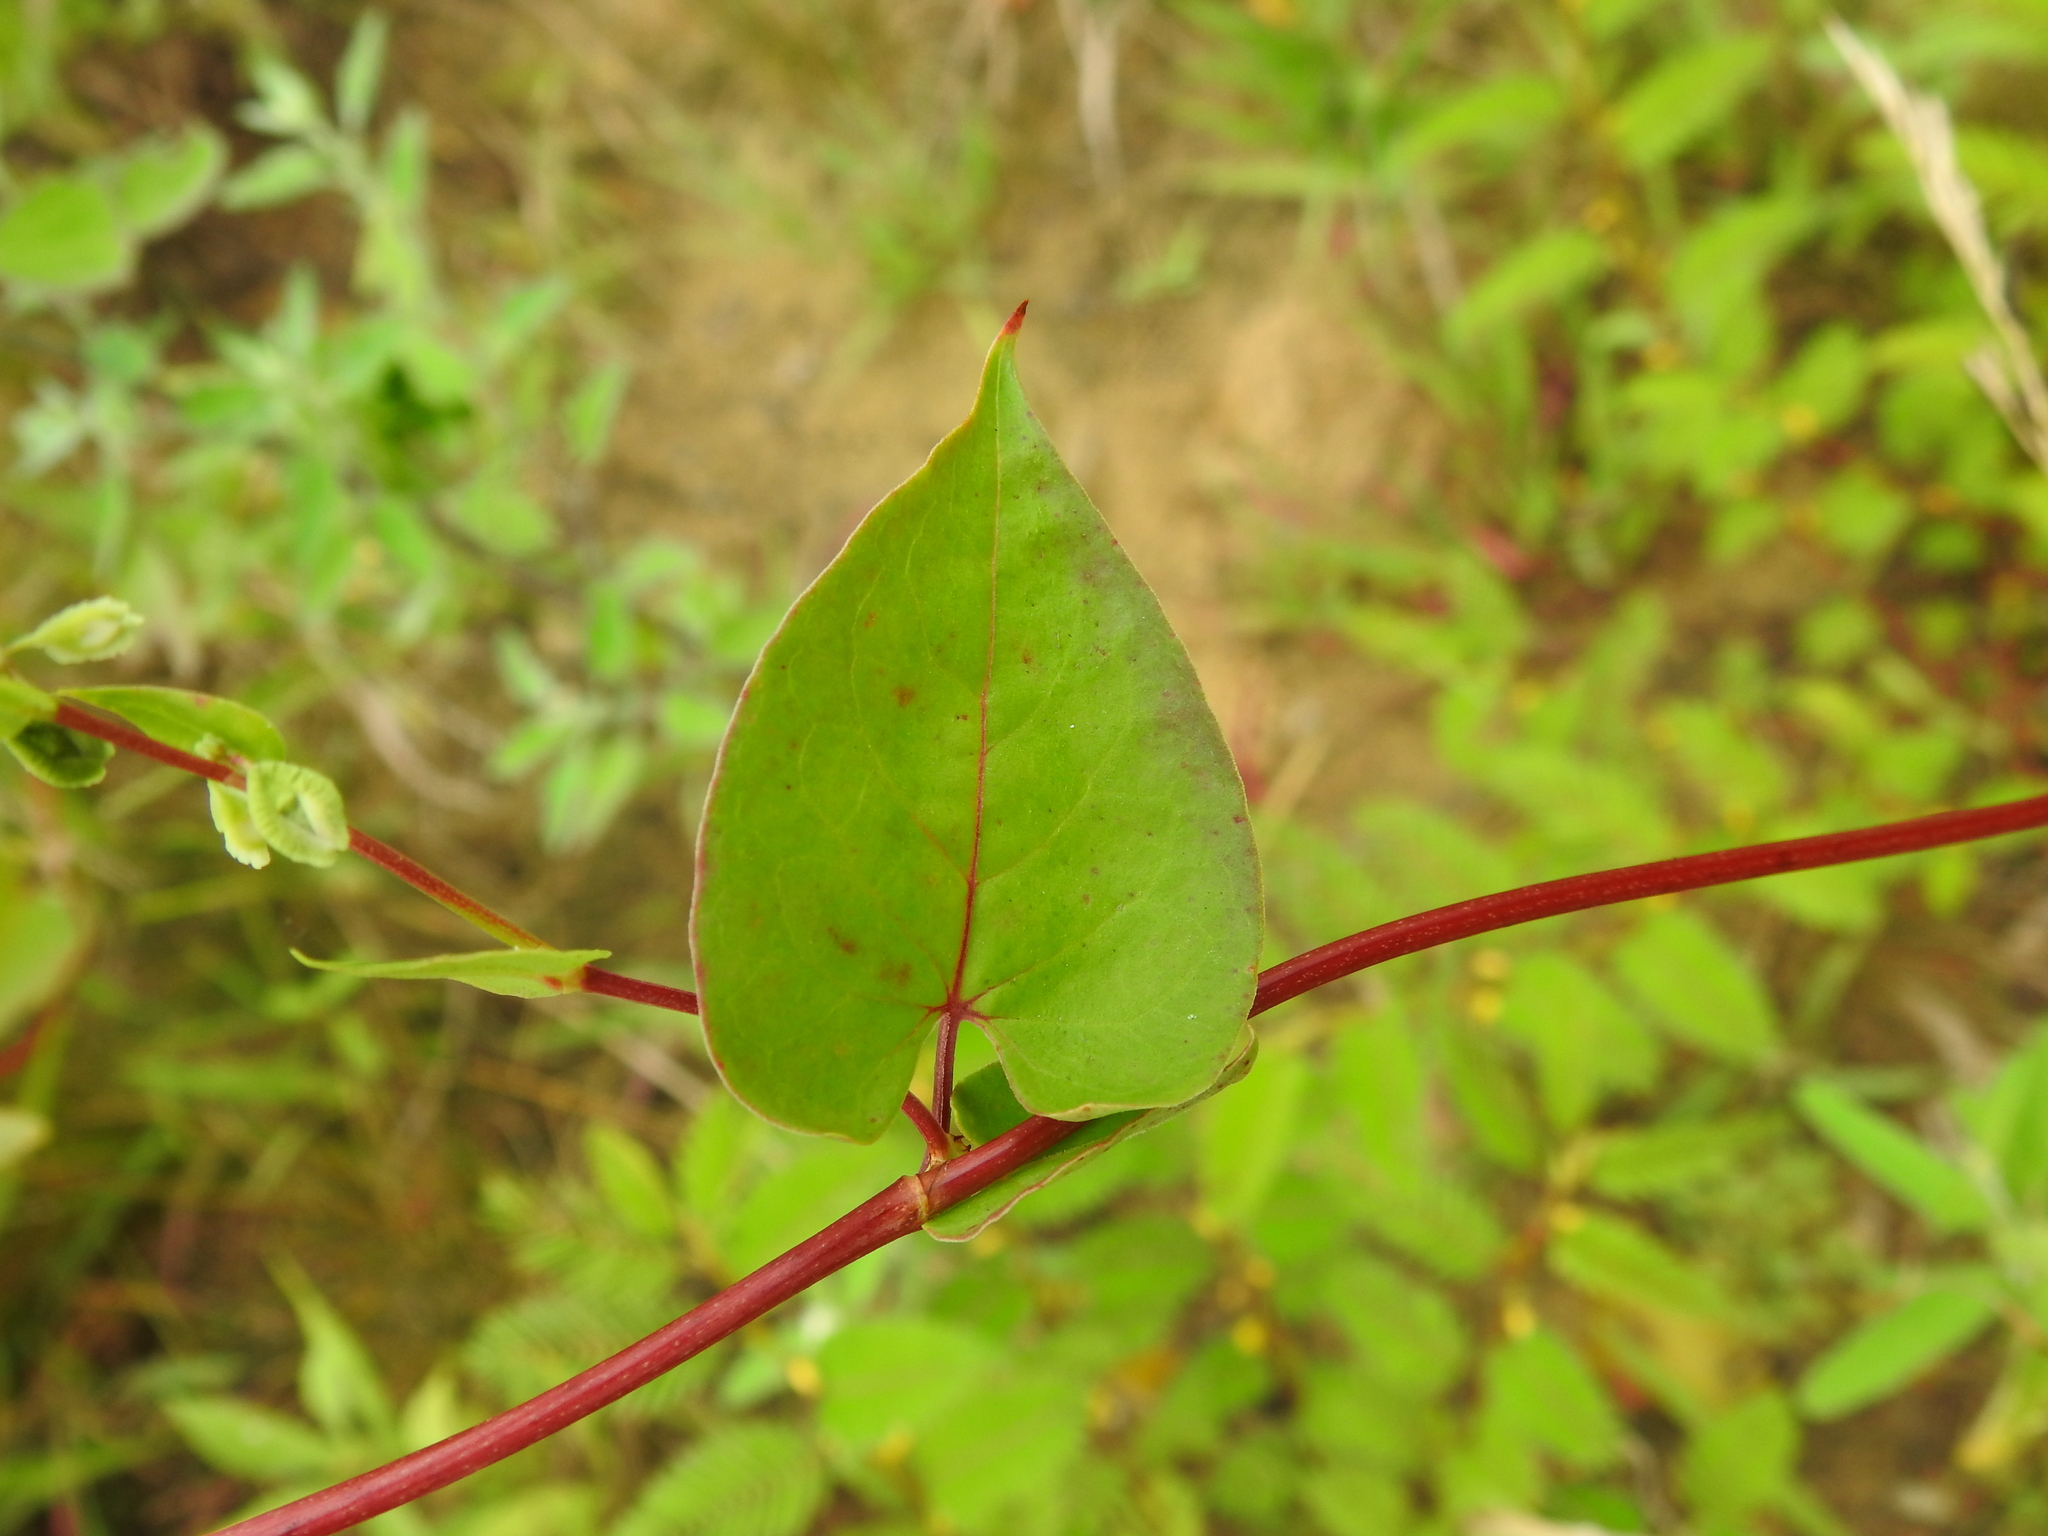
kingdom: Plantae
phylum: Tracheophyta
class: Magnoliopsida
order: Caryophyllales
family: Polygonaceae
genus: Fallopia
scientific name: Fallopia scandens
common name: Climbing false buckwheat
